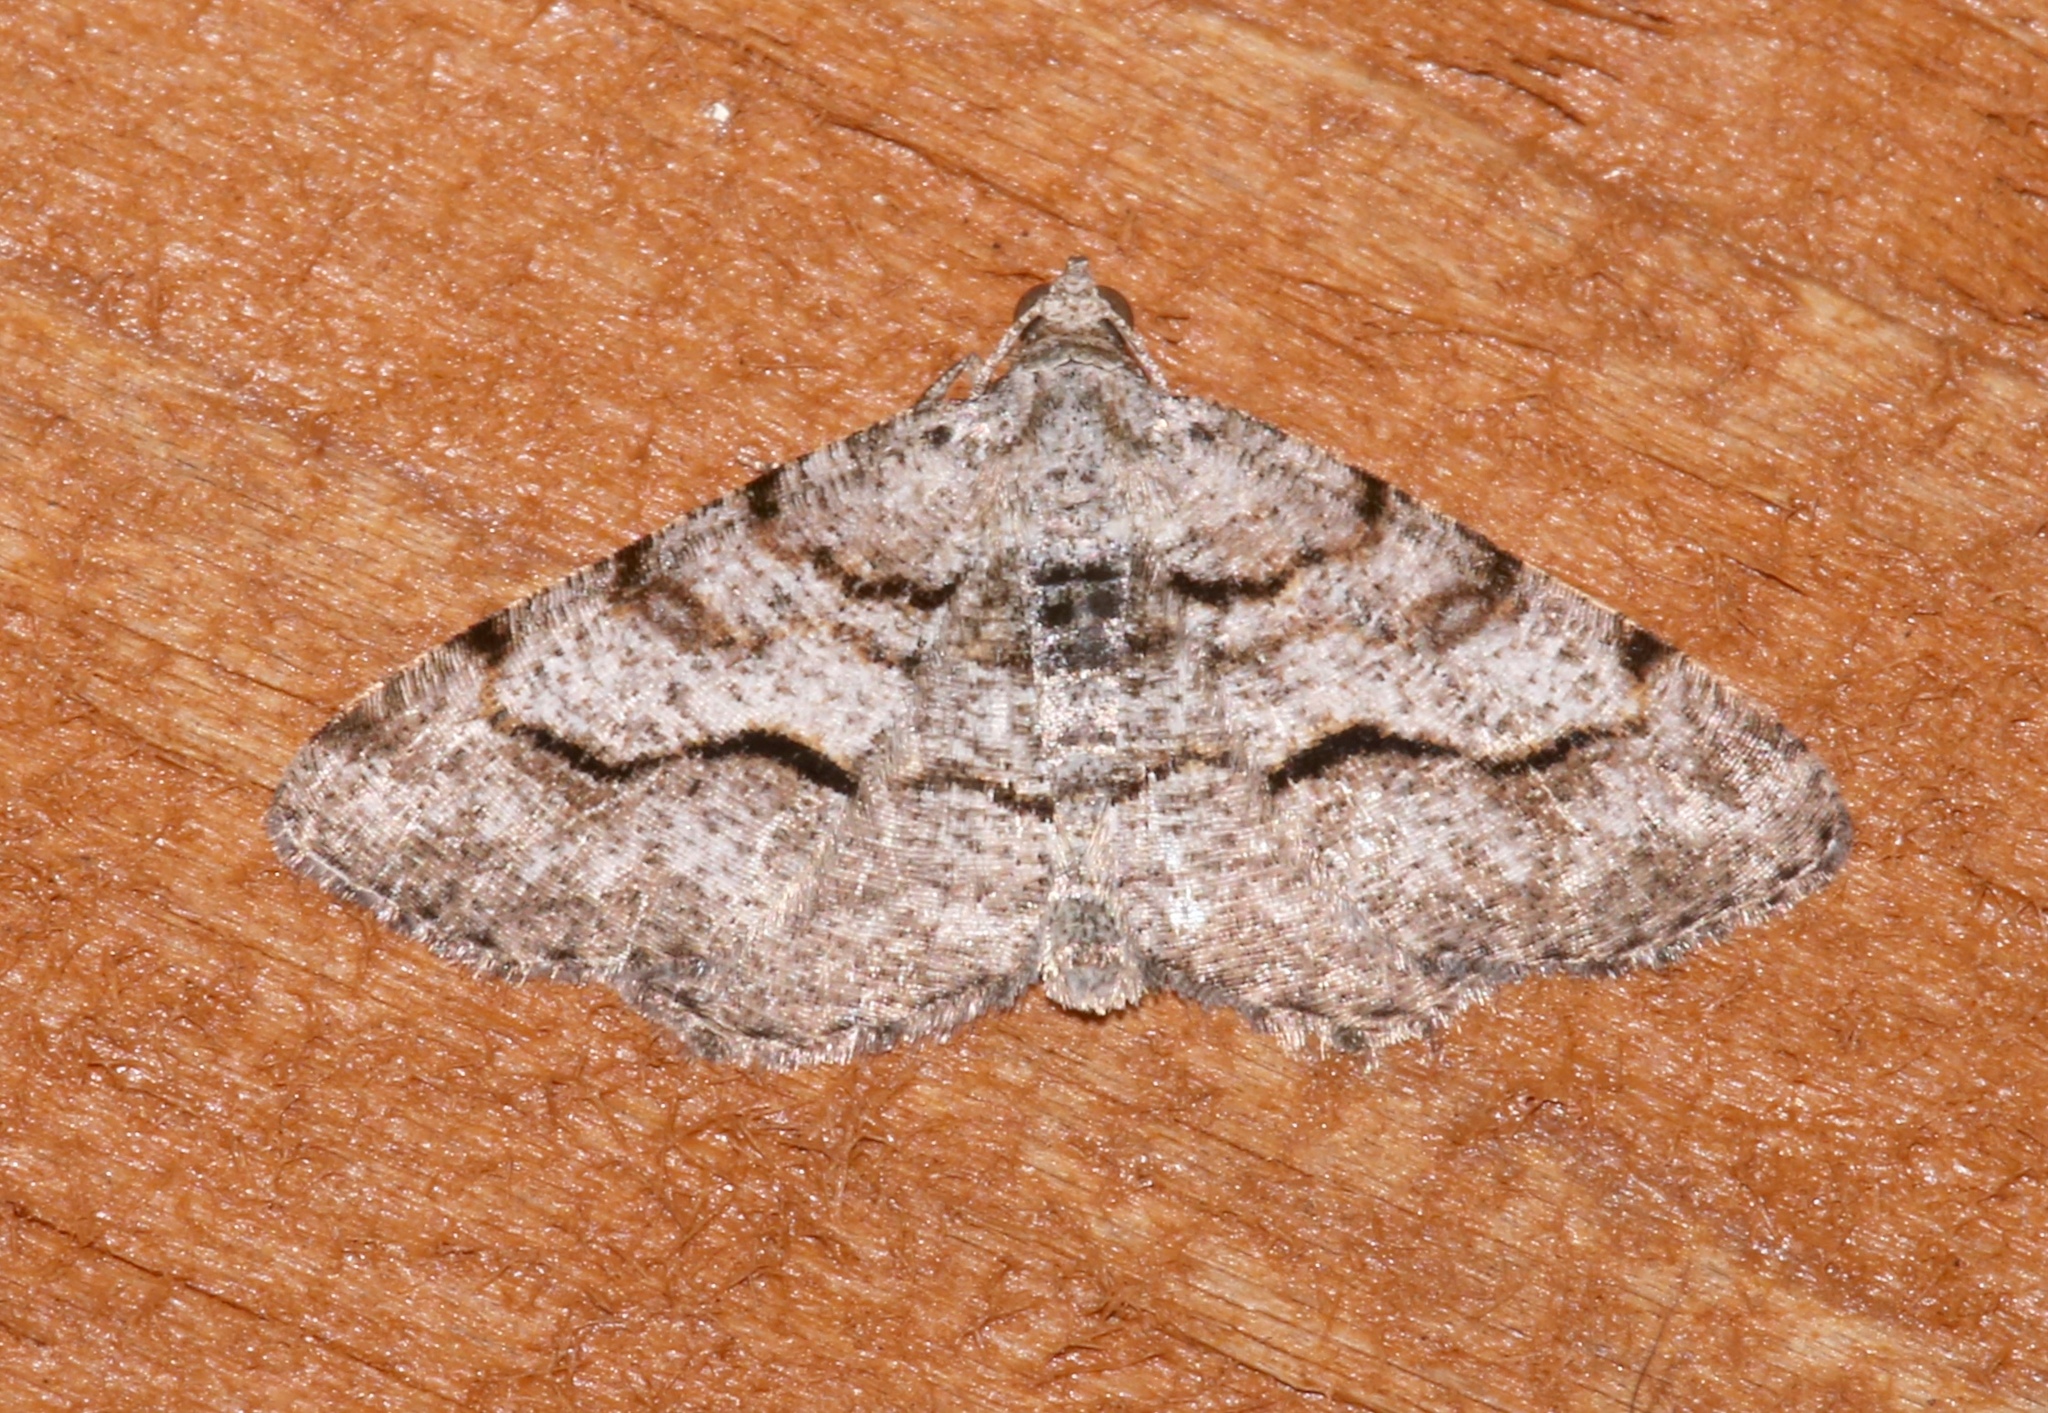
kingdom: Animalia
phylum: Arthropoda
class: Insecta
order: Lepidoptera
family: Geometridae
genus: Digrammia
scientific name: Digrammia gnophosaria
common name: Hollow-spotted angle
